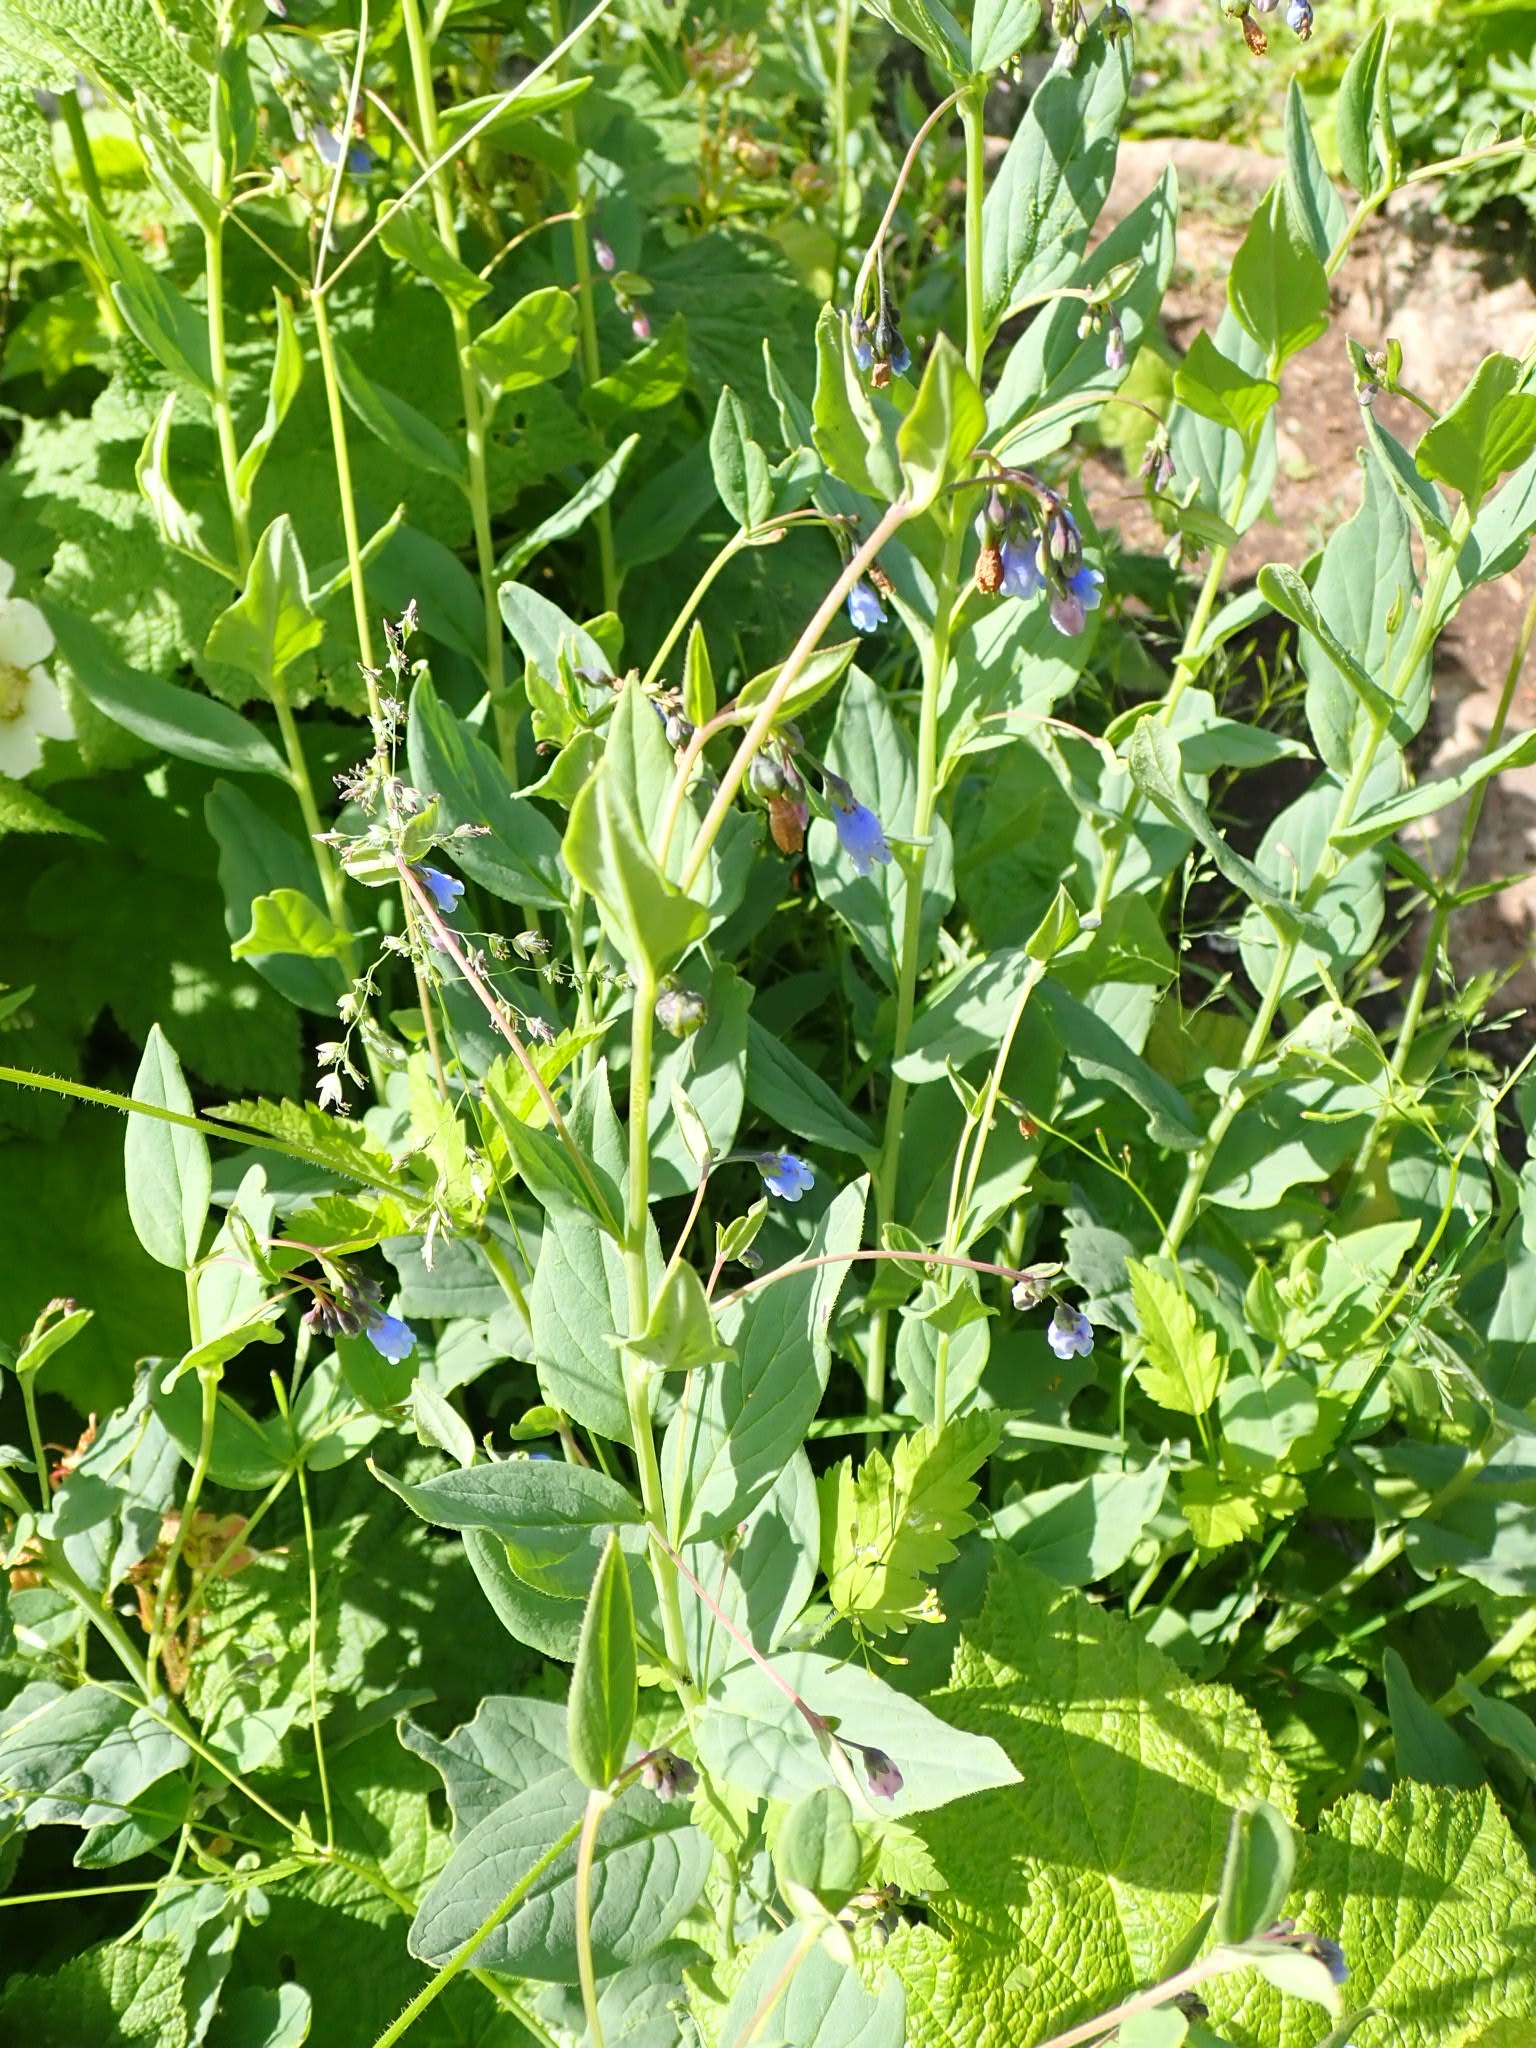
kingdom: Plantae
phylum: Tracheophyta
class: Magnoliopsida
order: Boraginales
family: Boraginaceae
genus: Mertensia
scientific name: Mertensia paniculata
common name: Panicled bluebells
